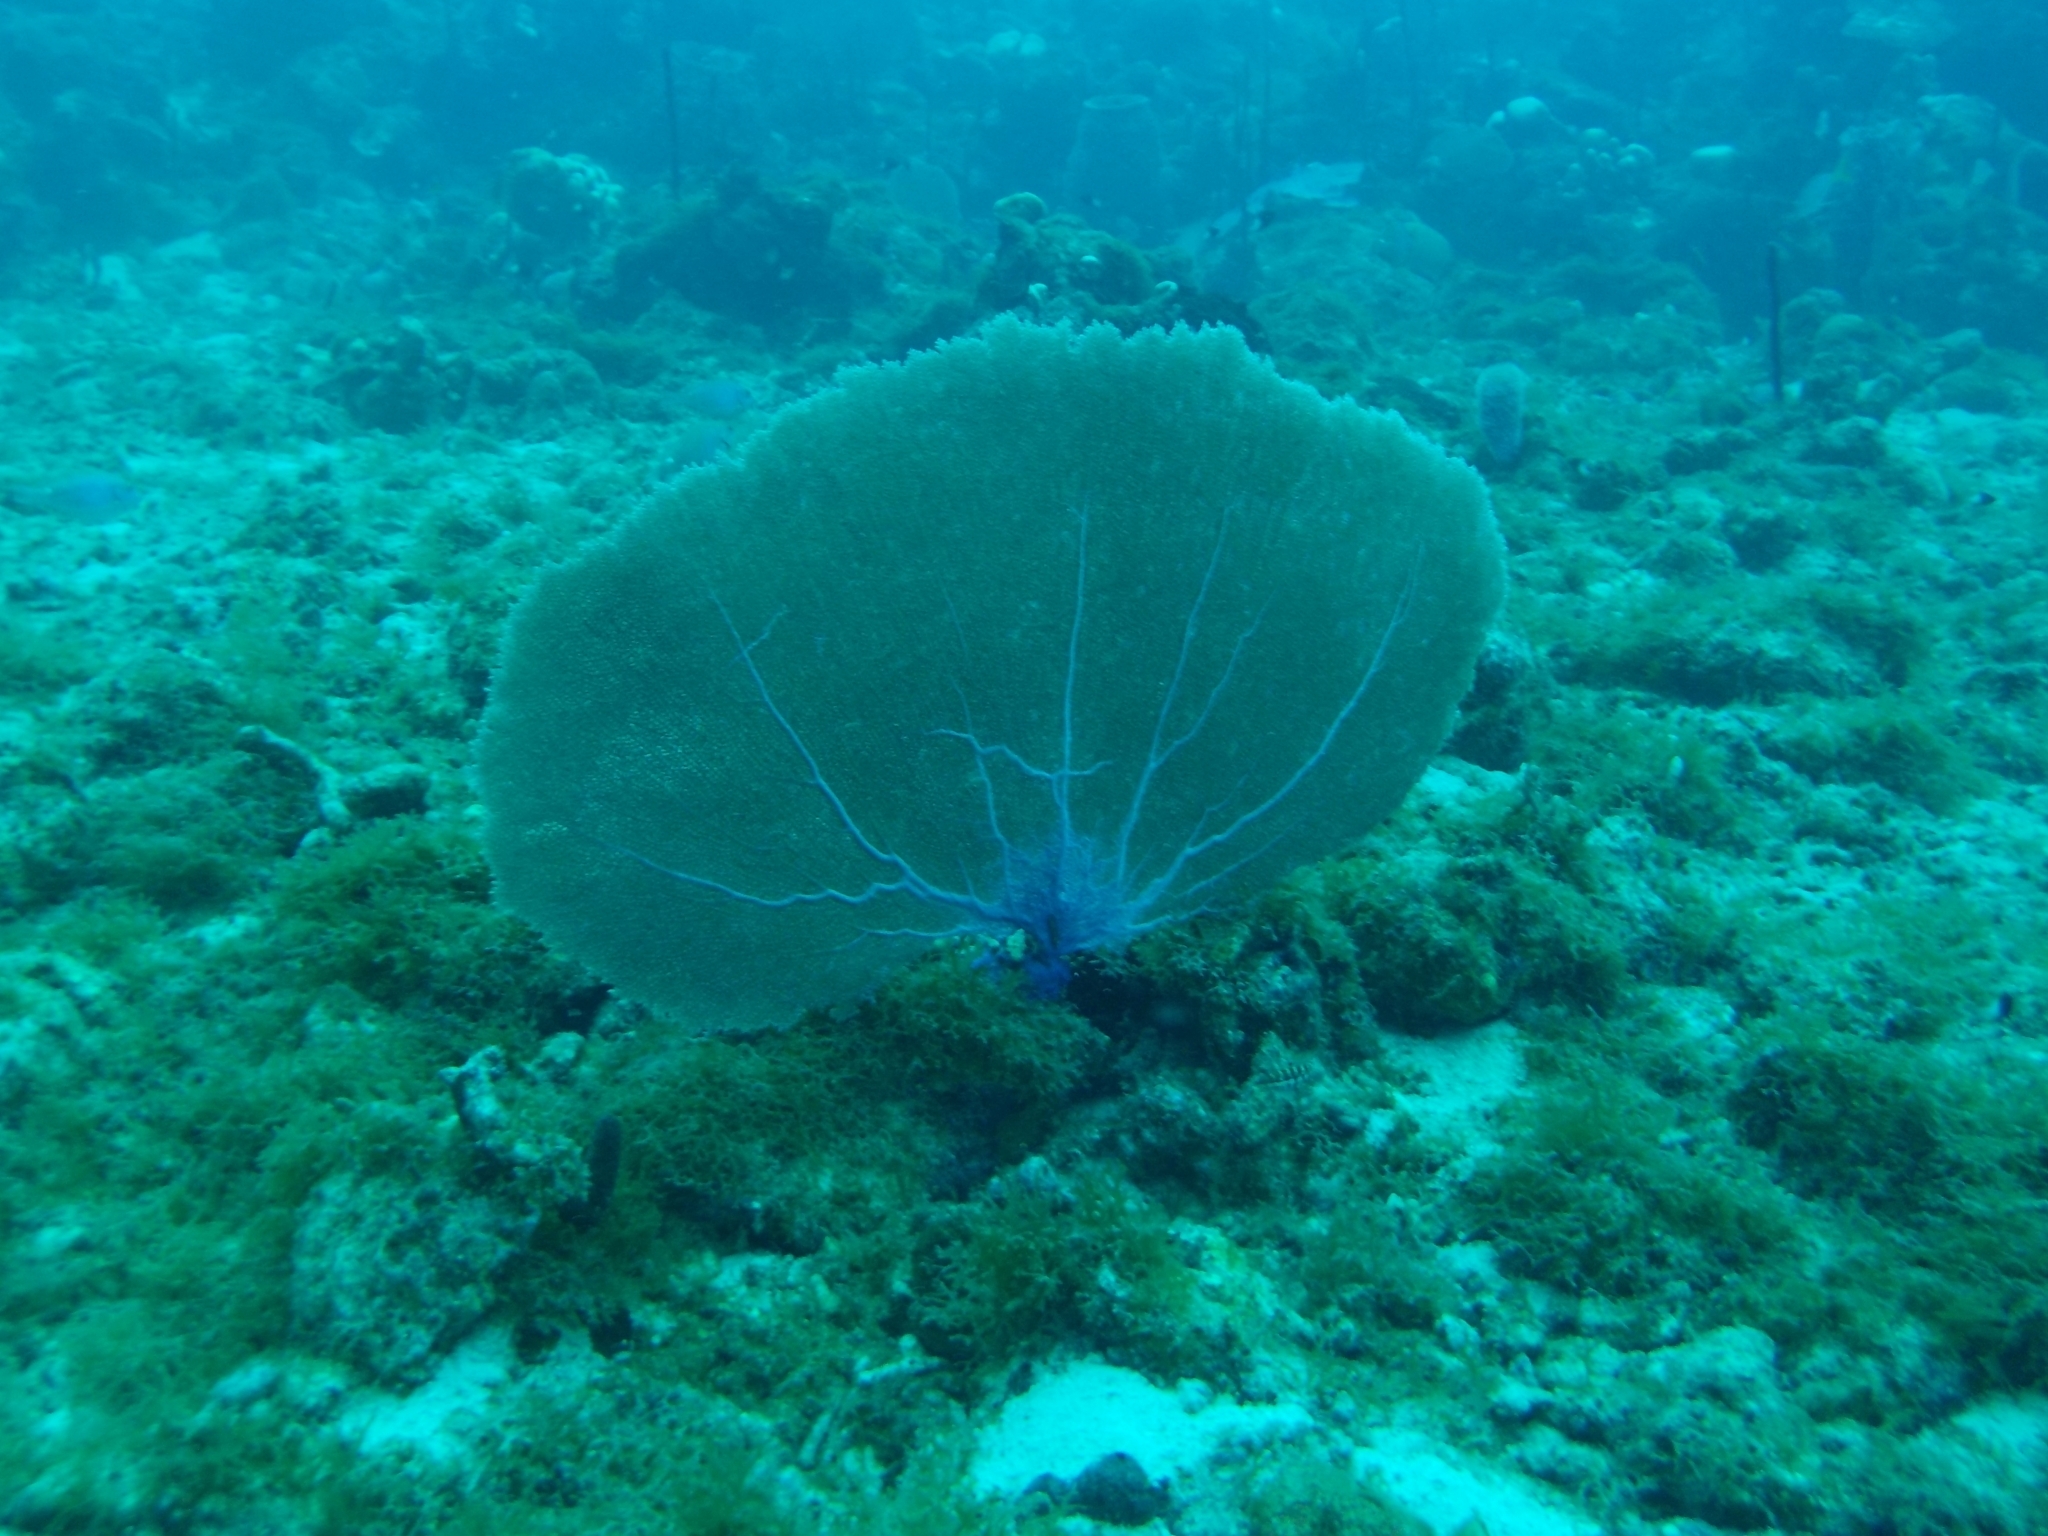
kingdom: Animalia
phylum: Cnidaria
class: Anthozoa
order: Malacalcyonacea
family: Gorgoniidae
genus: Gorgonia
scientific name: Gorgonia ventalina
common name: Common sea fan
